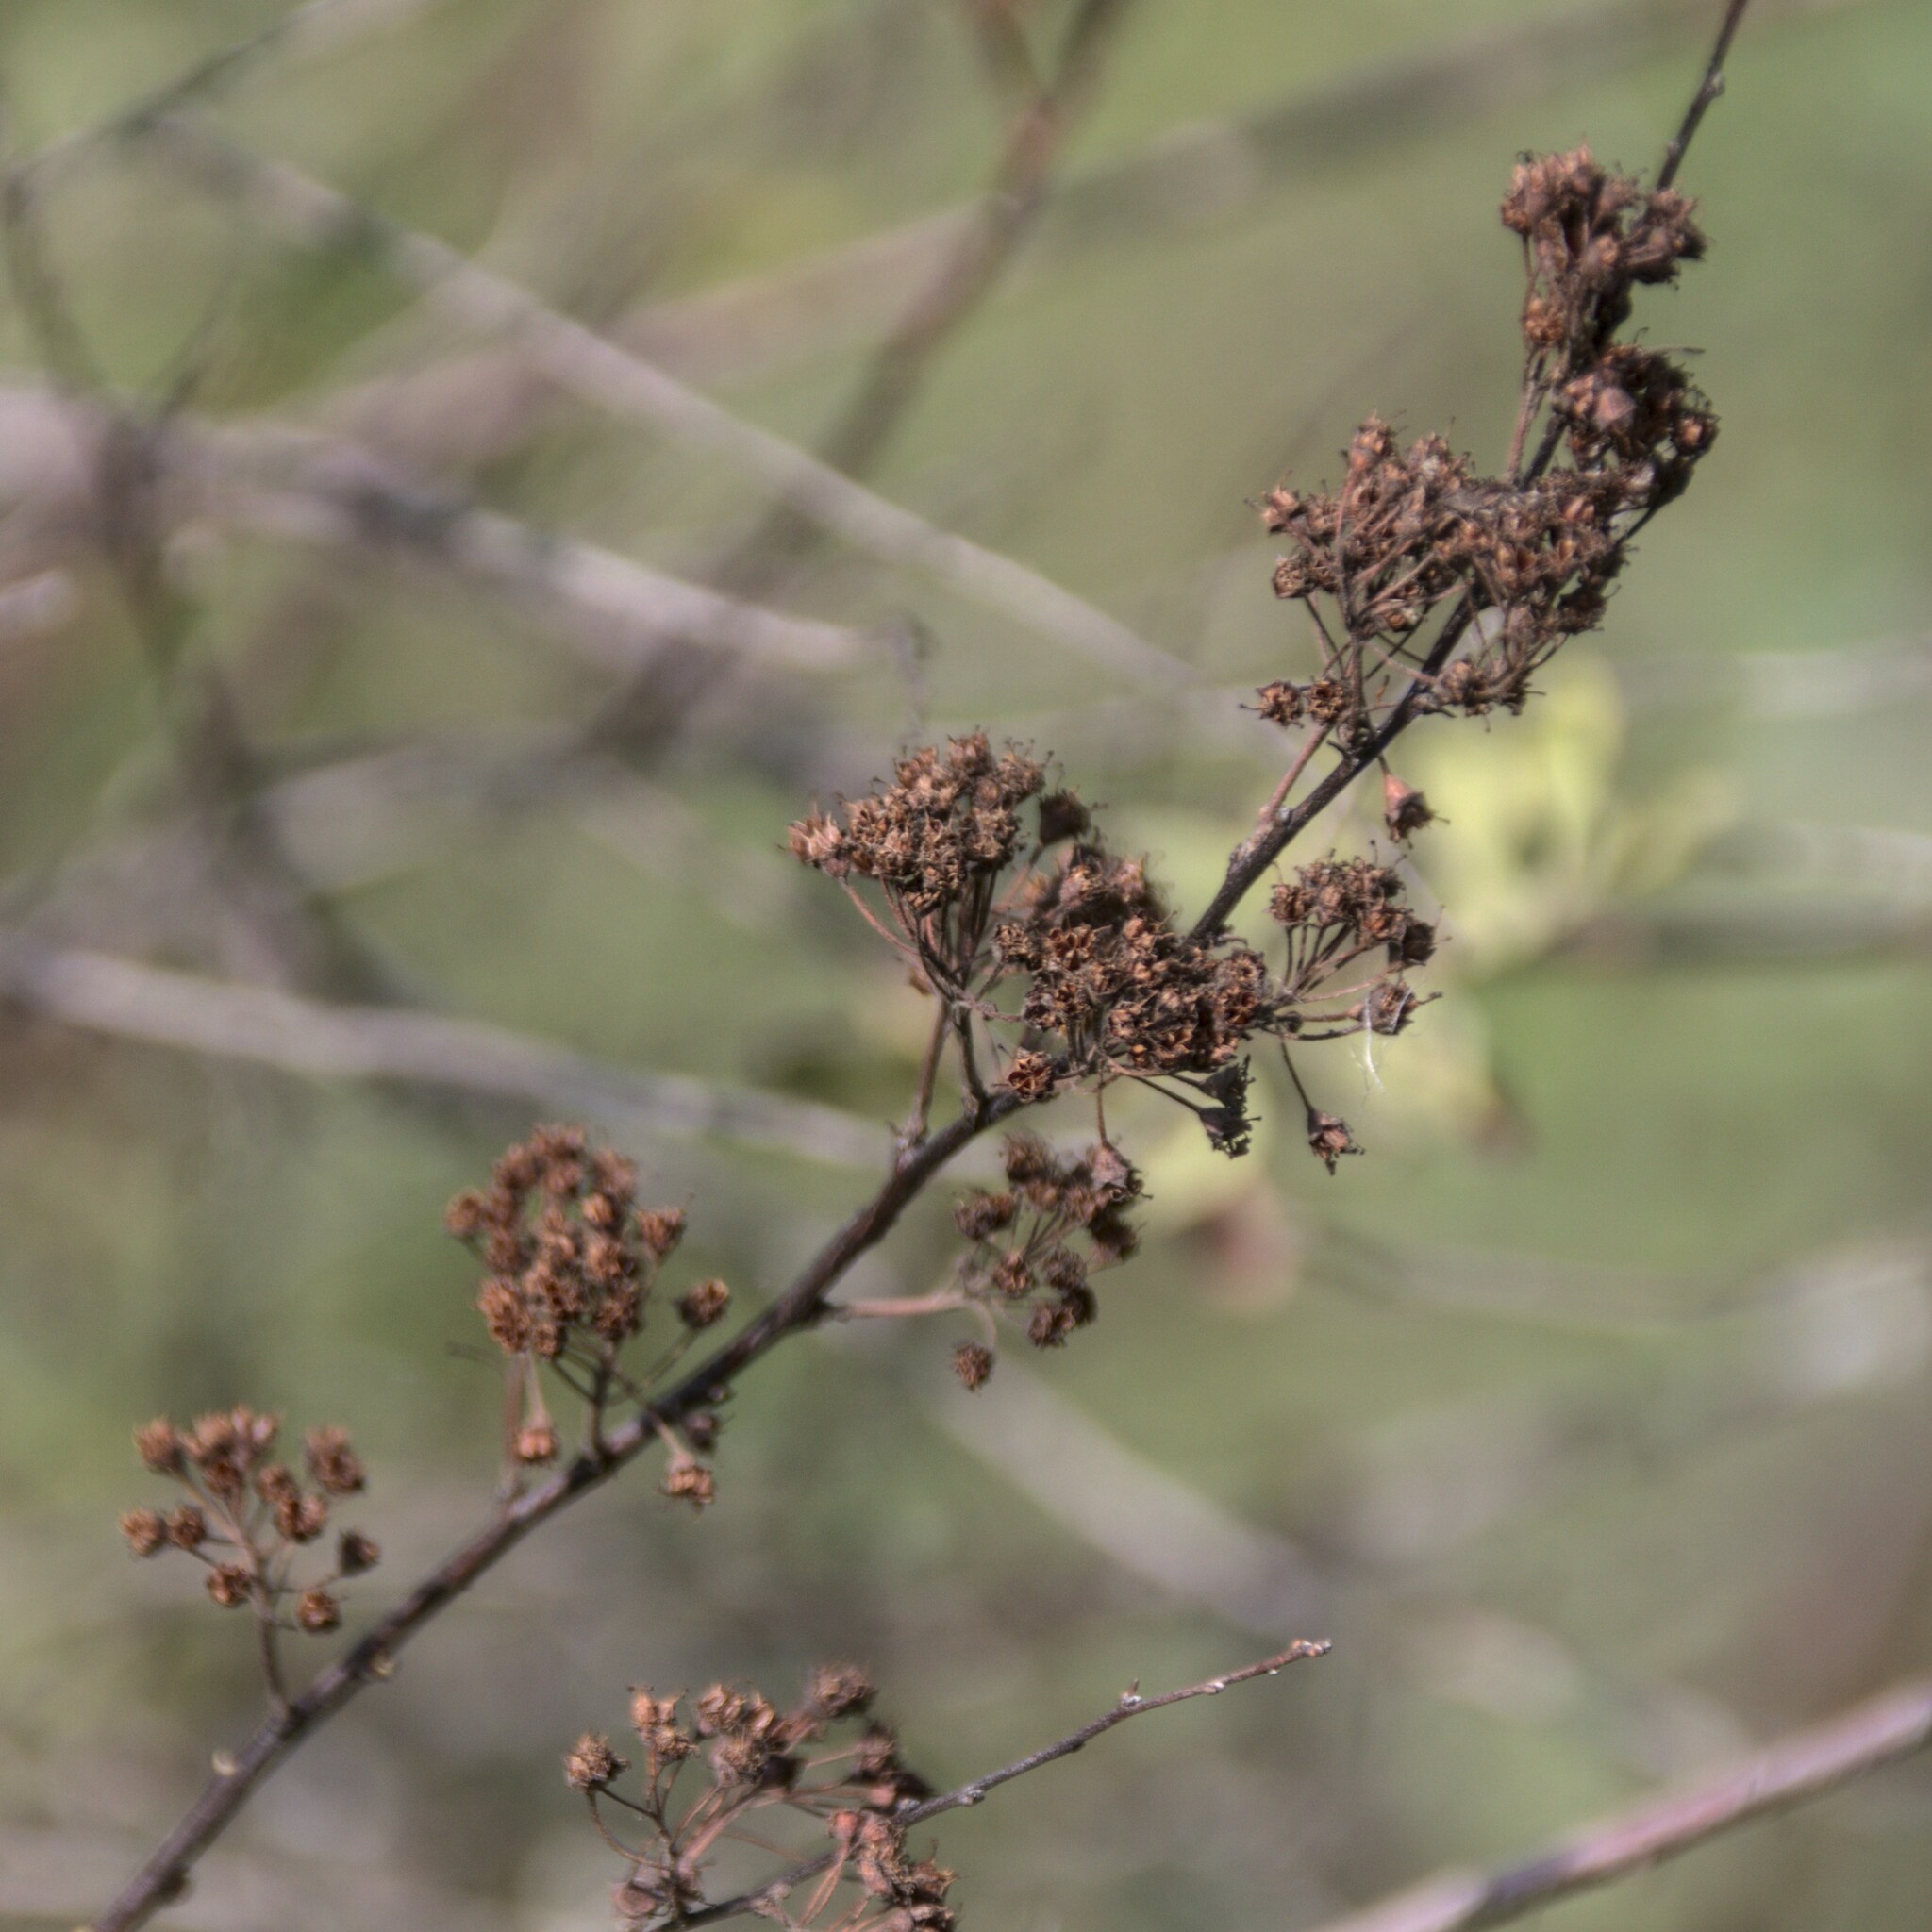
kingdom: Plantae
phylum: Tracheophyta
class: Magnoliopsida
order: Rosales
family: Rosaceae
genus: Spiraea
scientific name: Spiraea crenata
